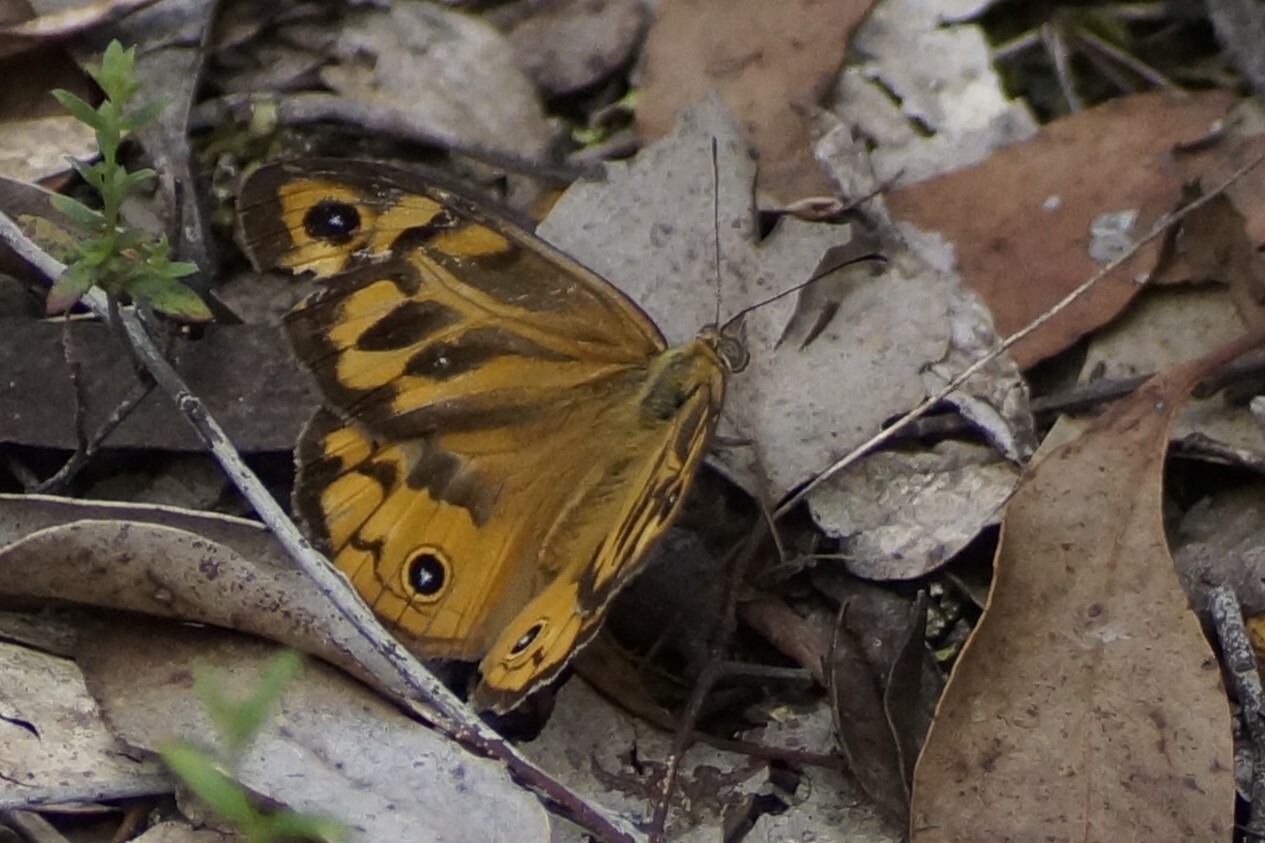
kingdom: Animalia
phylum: Arthropoda
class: Insecta
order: Lepidoptera
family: Nymphalidae
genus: Heteronympha
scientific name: Heteronympha merope
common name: Common brown
